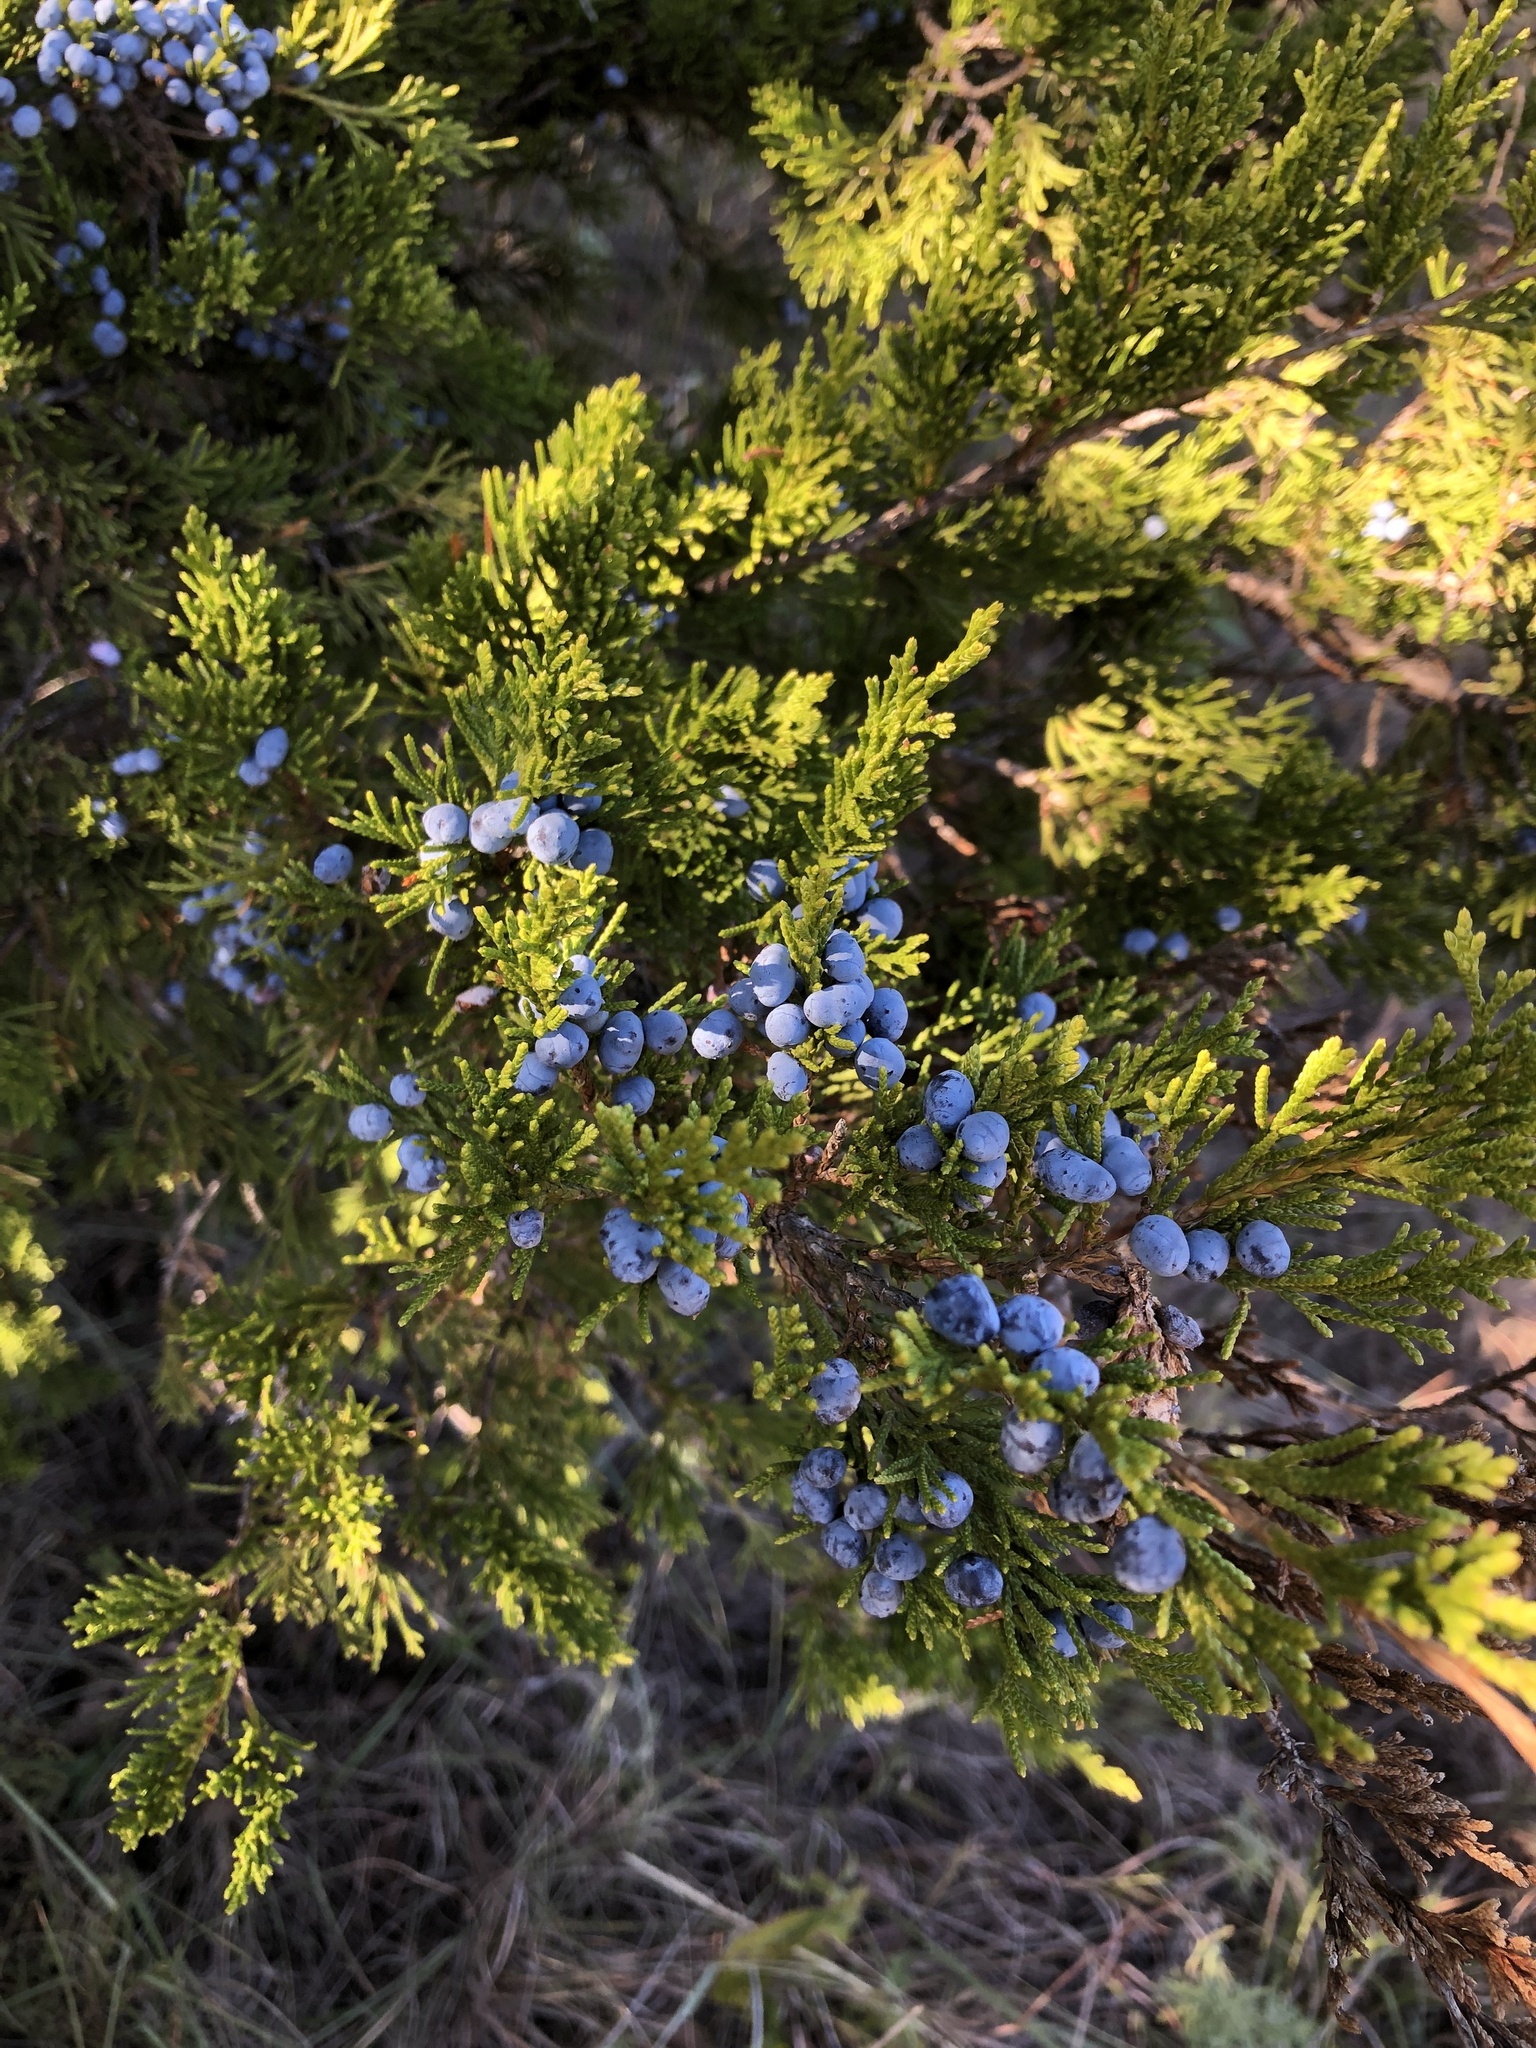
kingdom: Plantae
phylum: Tracheophyta
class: Pinopsida
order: Pinales
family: Cupressaceae
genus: Juniperus
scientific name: Juniperus virginiana
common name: Red juniper
